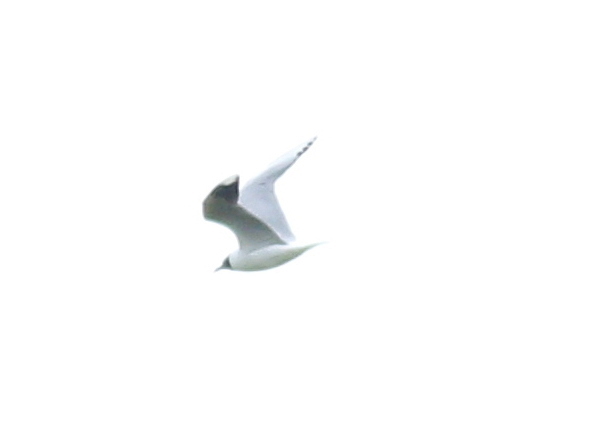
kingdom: Animalia
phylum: Chordata
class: Aves
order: Charadriiformes
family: Laridae
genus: Chroicocephalus
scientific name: Chroicocephalus maculipennis
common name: Brown-hooded gull
